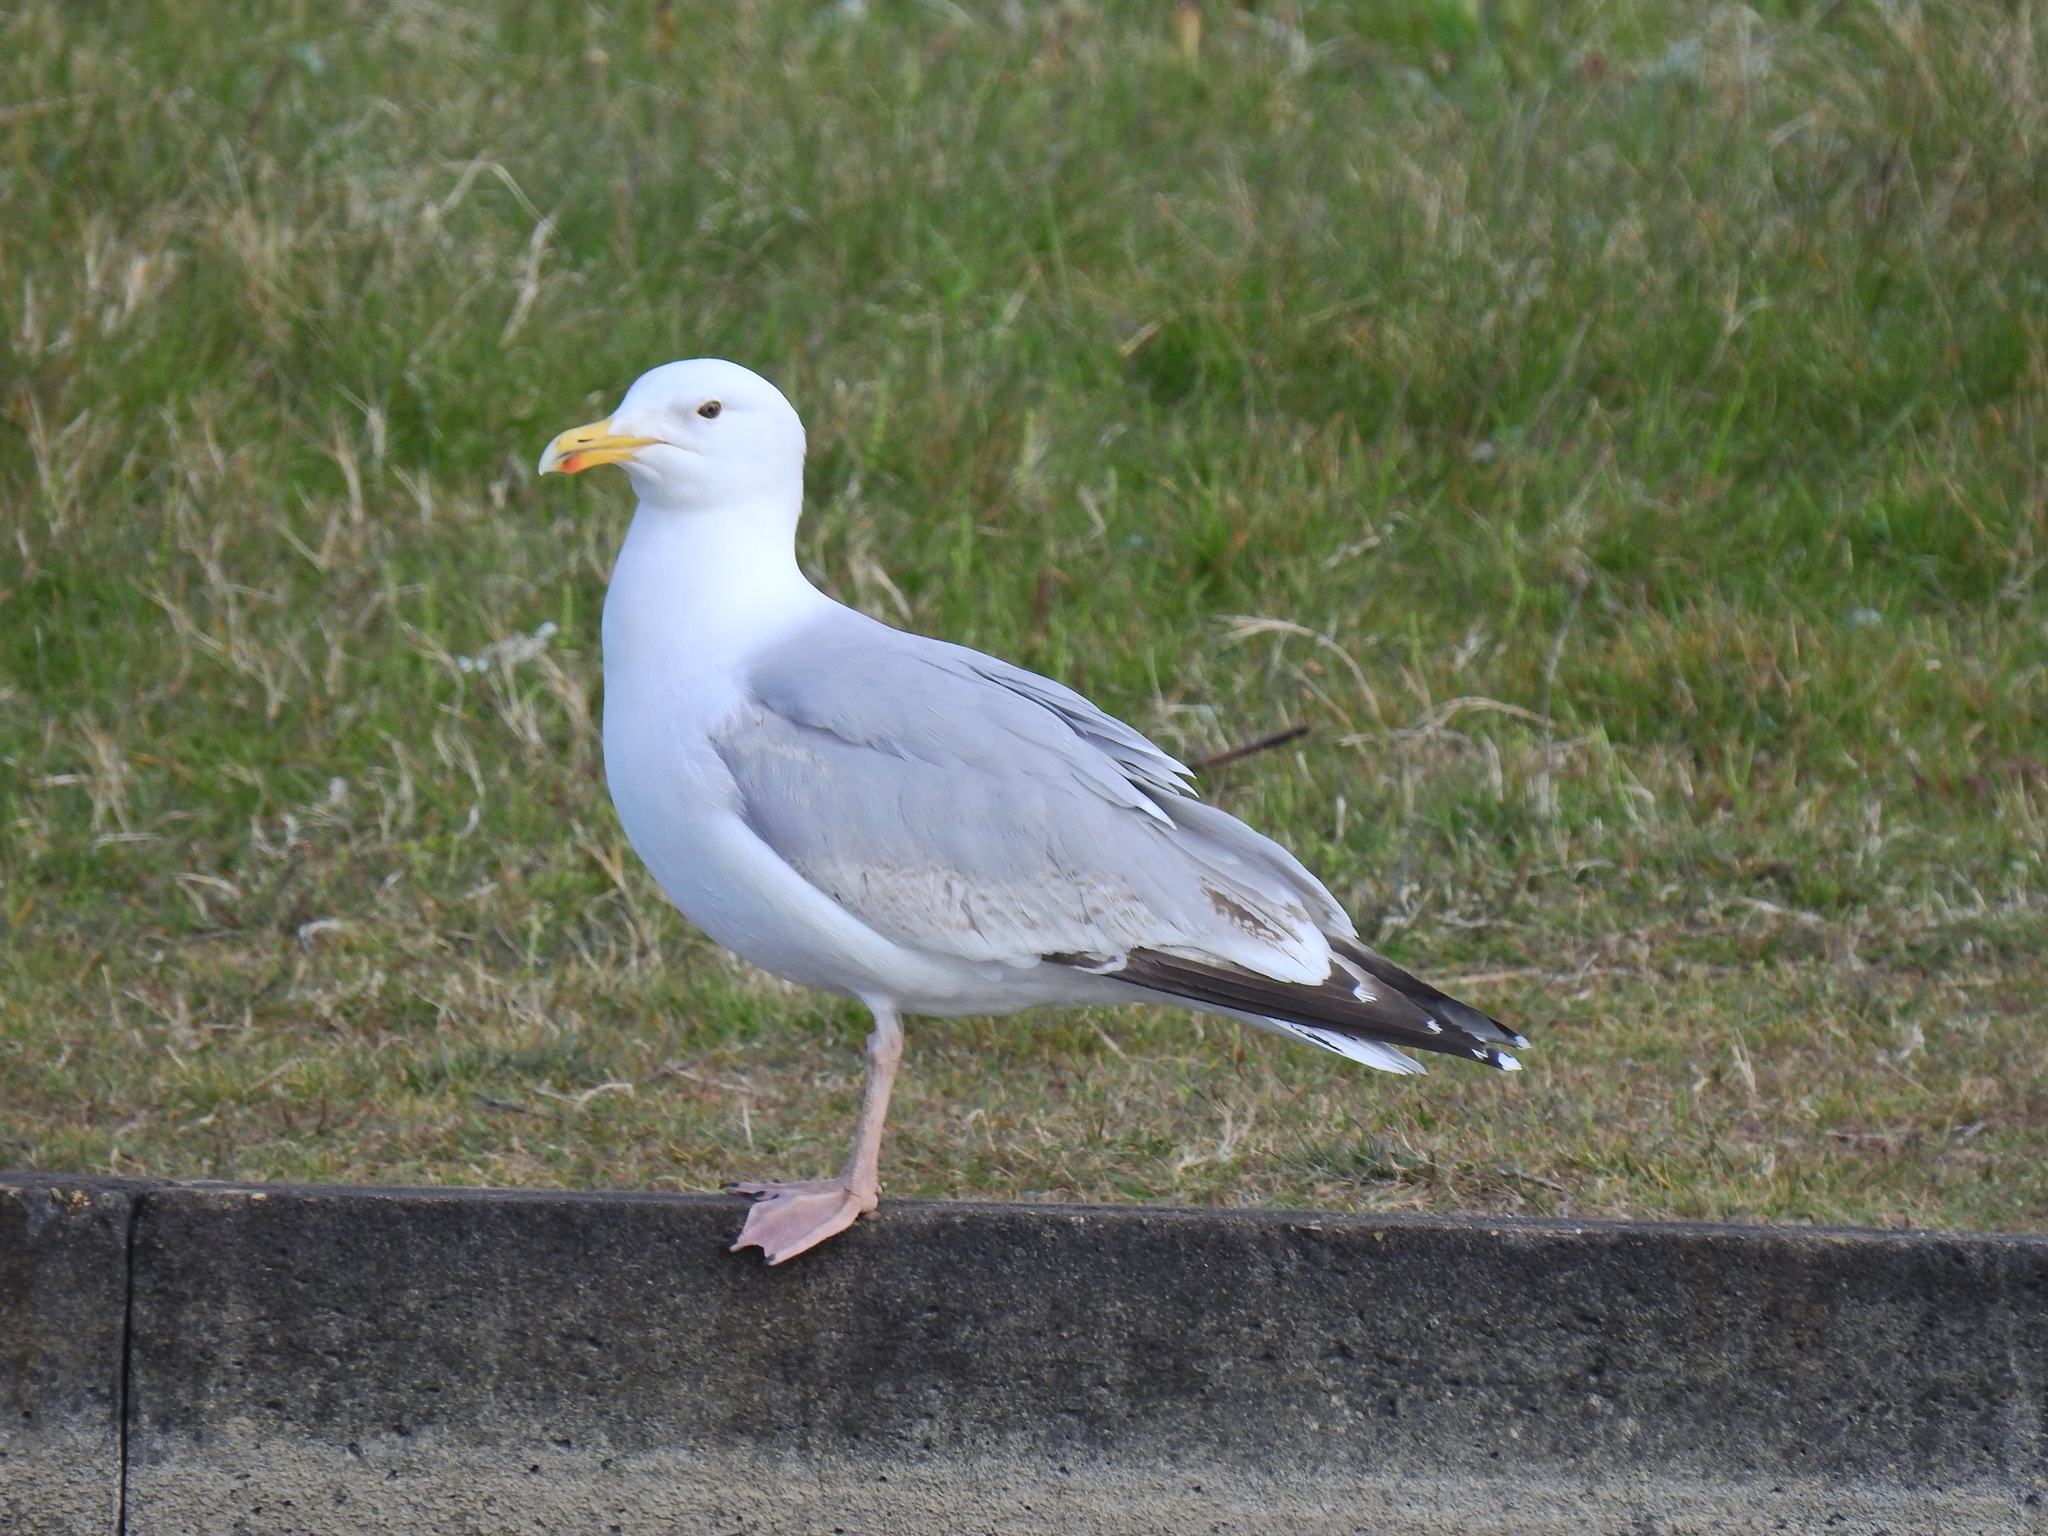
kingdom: Animalia
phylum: Chordata
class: Aves
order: Charadriiformes
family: Laridae
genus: Larus
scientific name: Larus argentatus
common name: Herring gull
